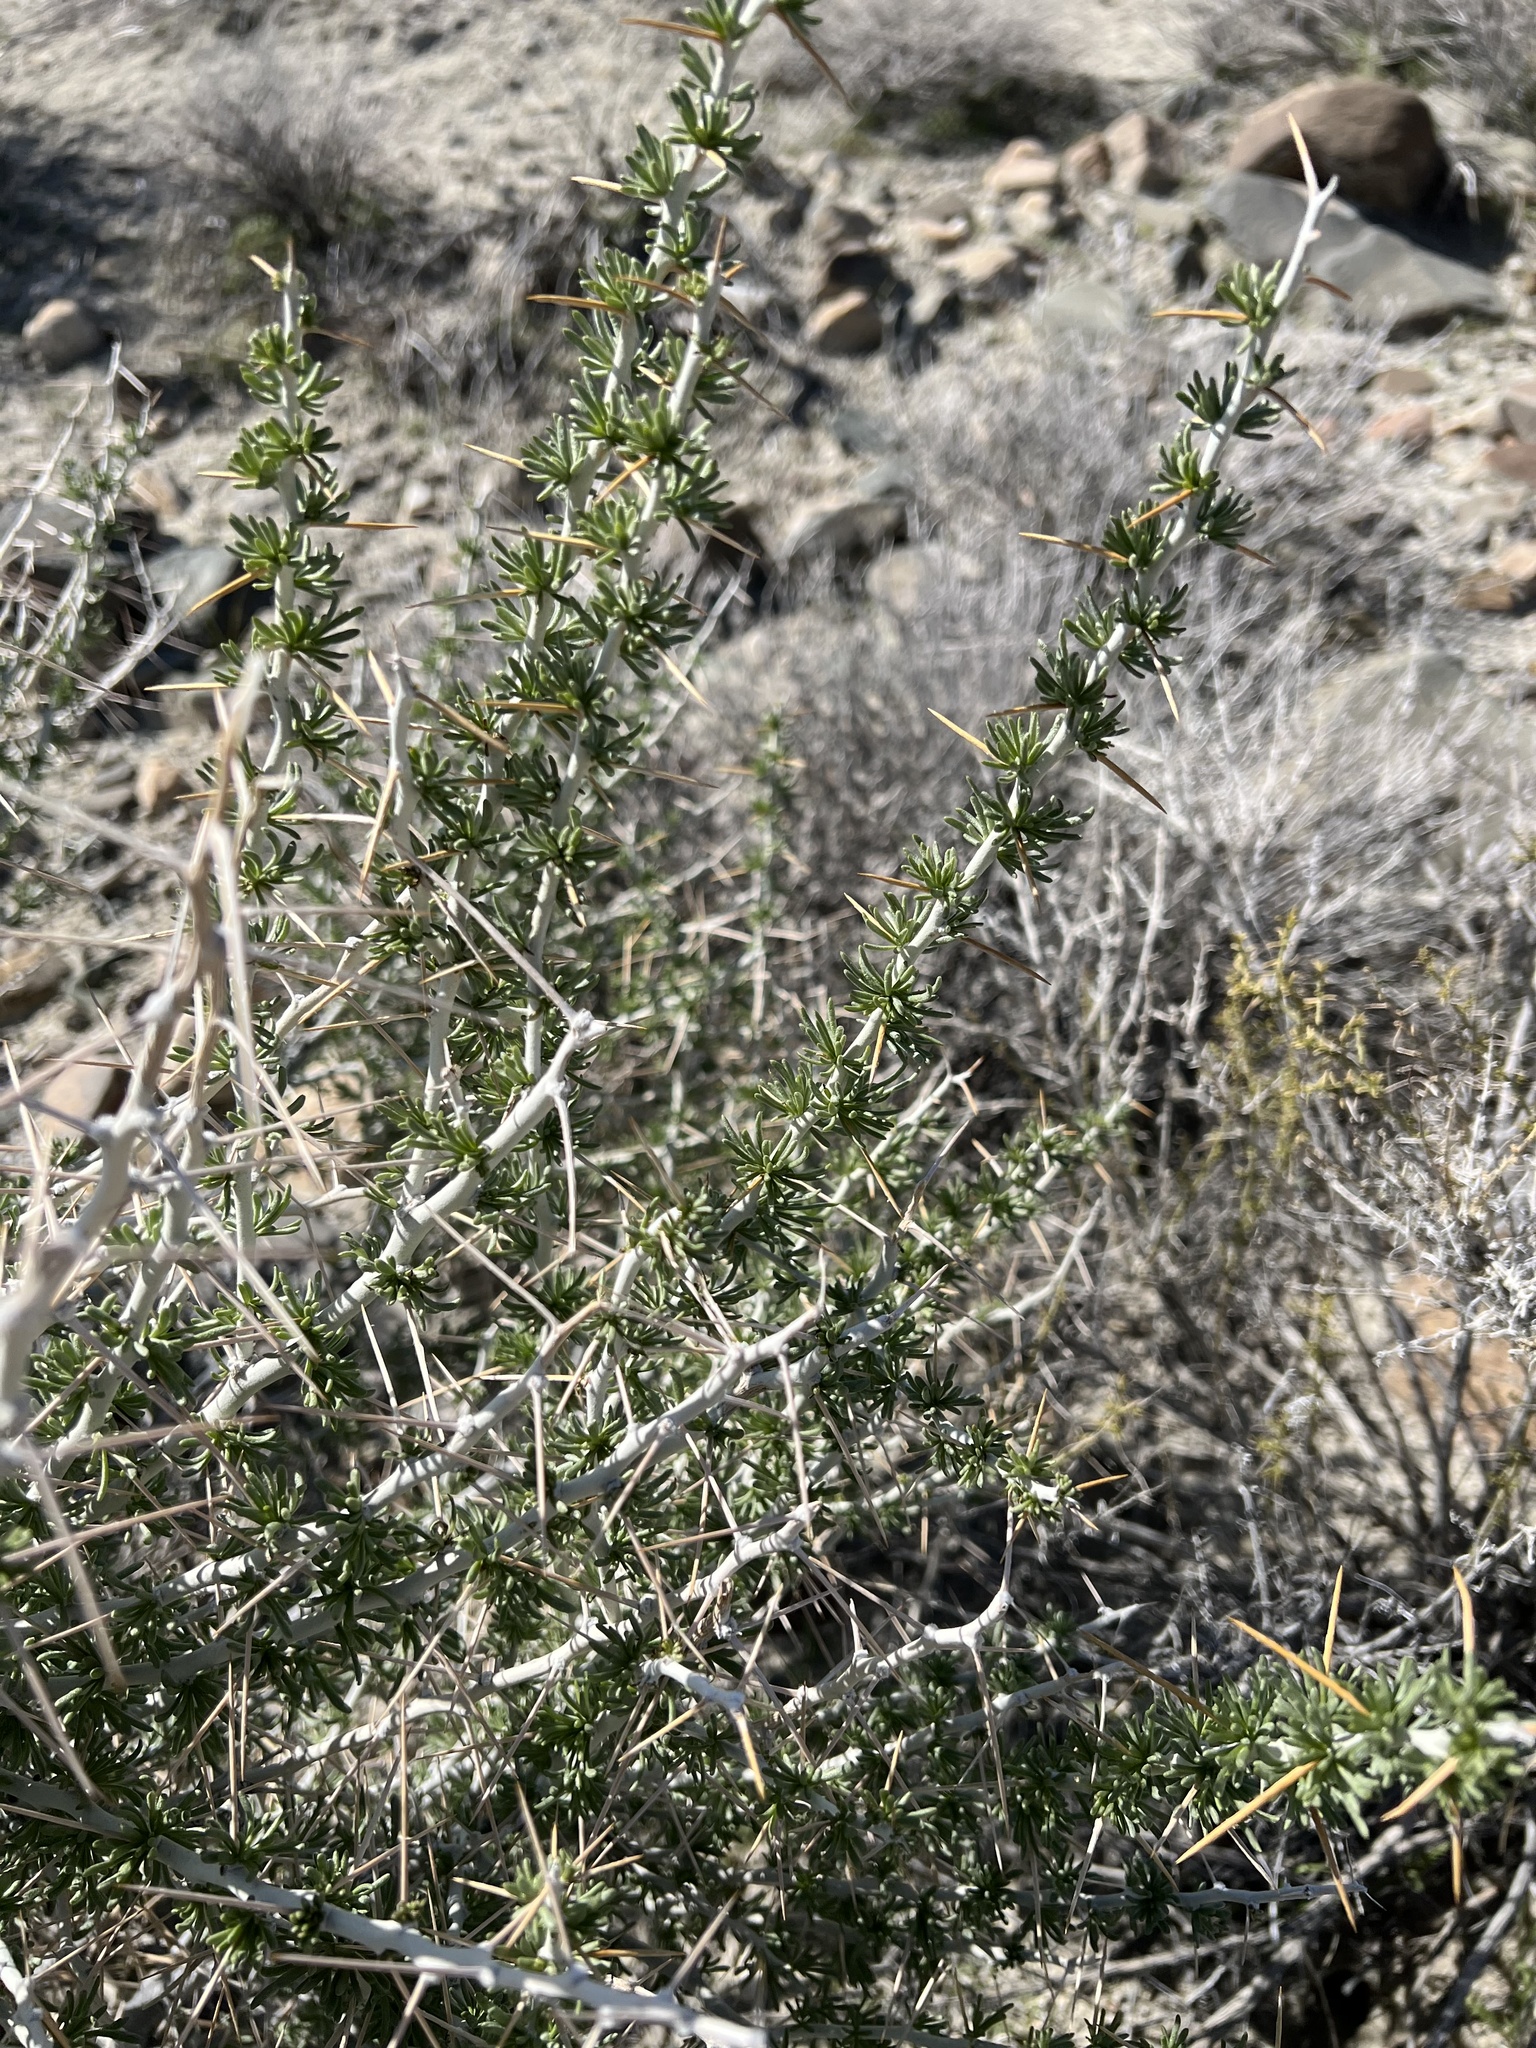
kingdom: Plantae
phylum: Tracheophyta
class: Magnoliopsida
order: Asterales
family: Asteraceae
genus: Tetradymia
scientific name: Tetradymia axillaris
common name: Long-spine horsebrush
